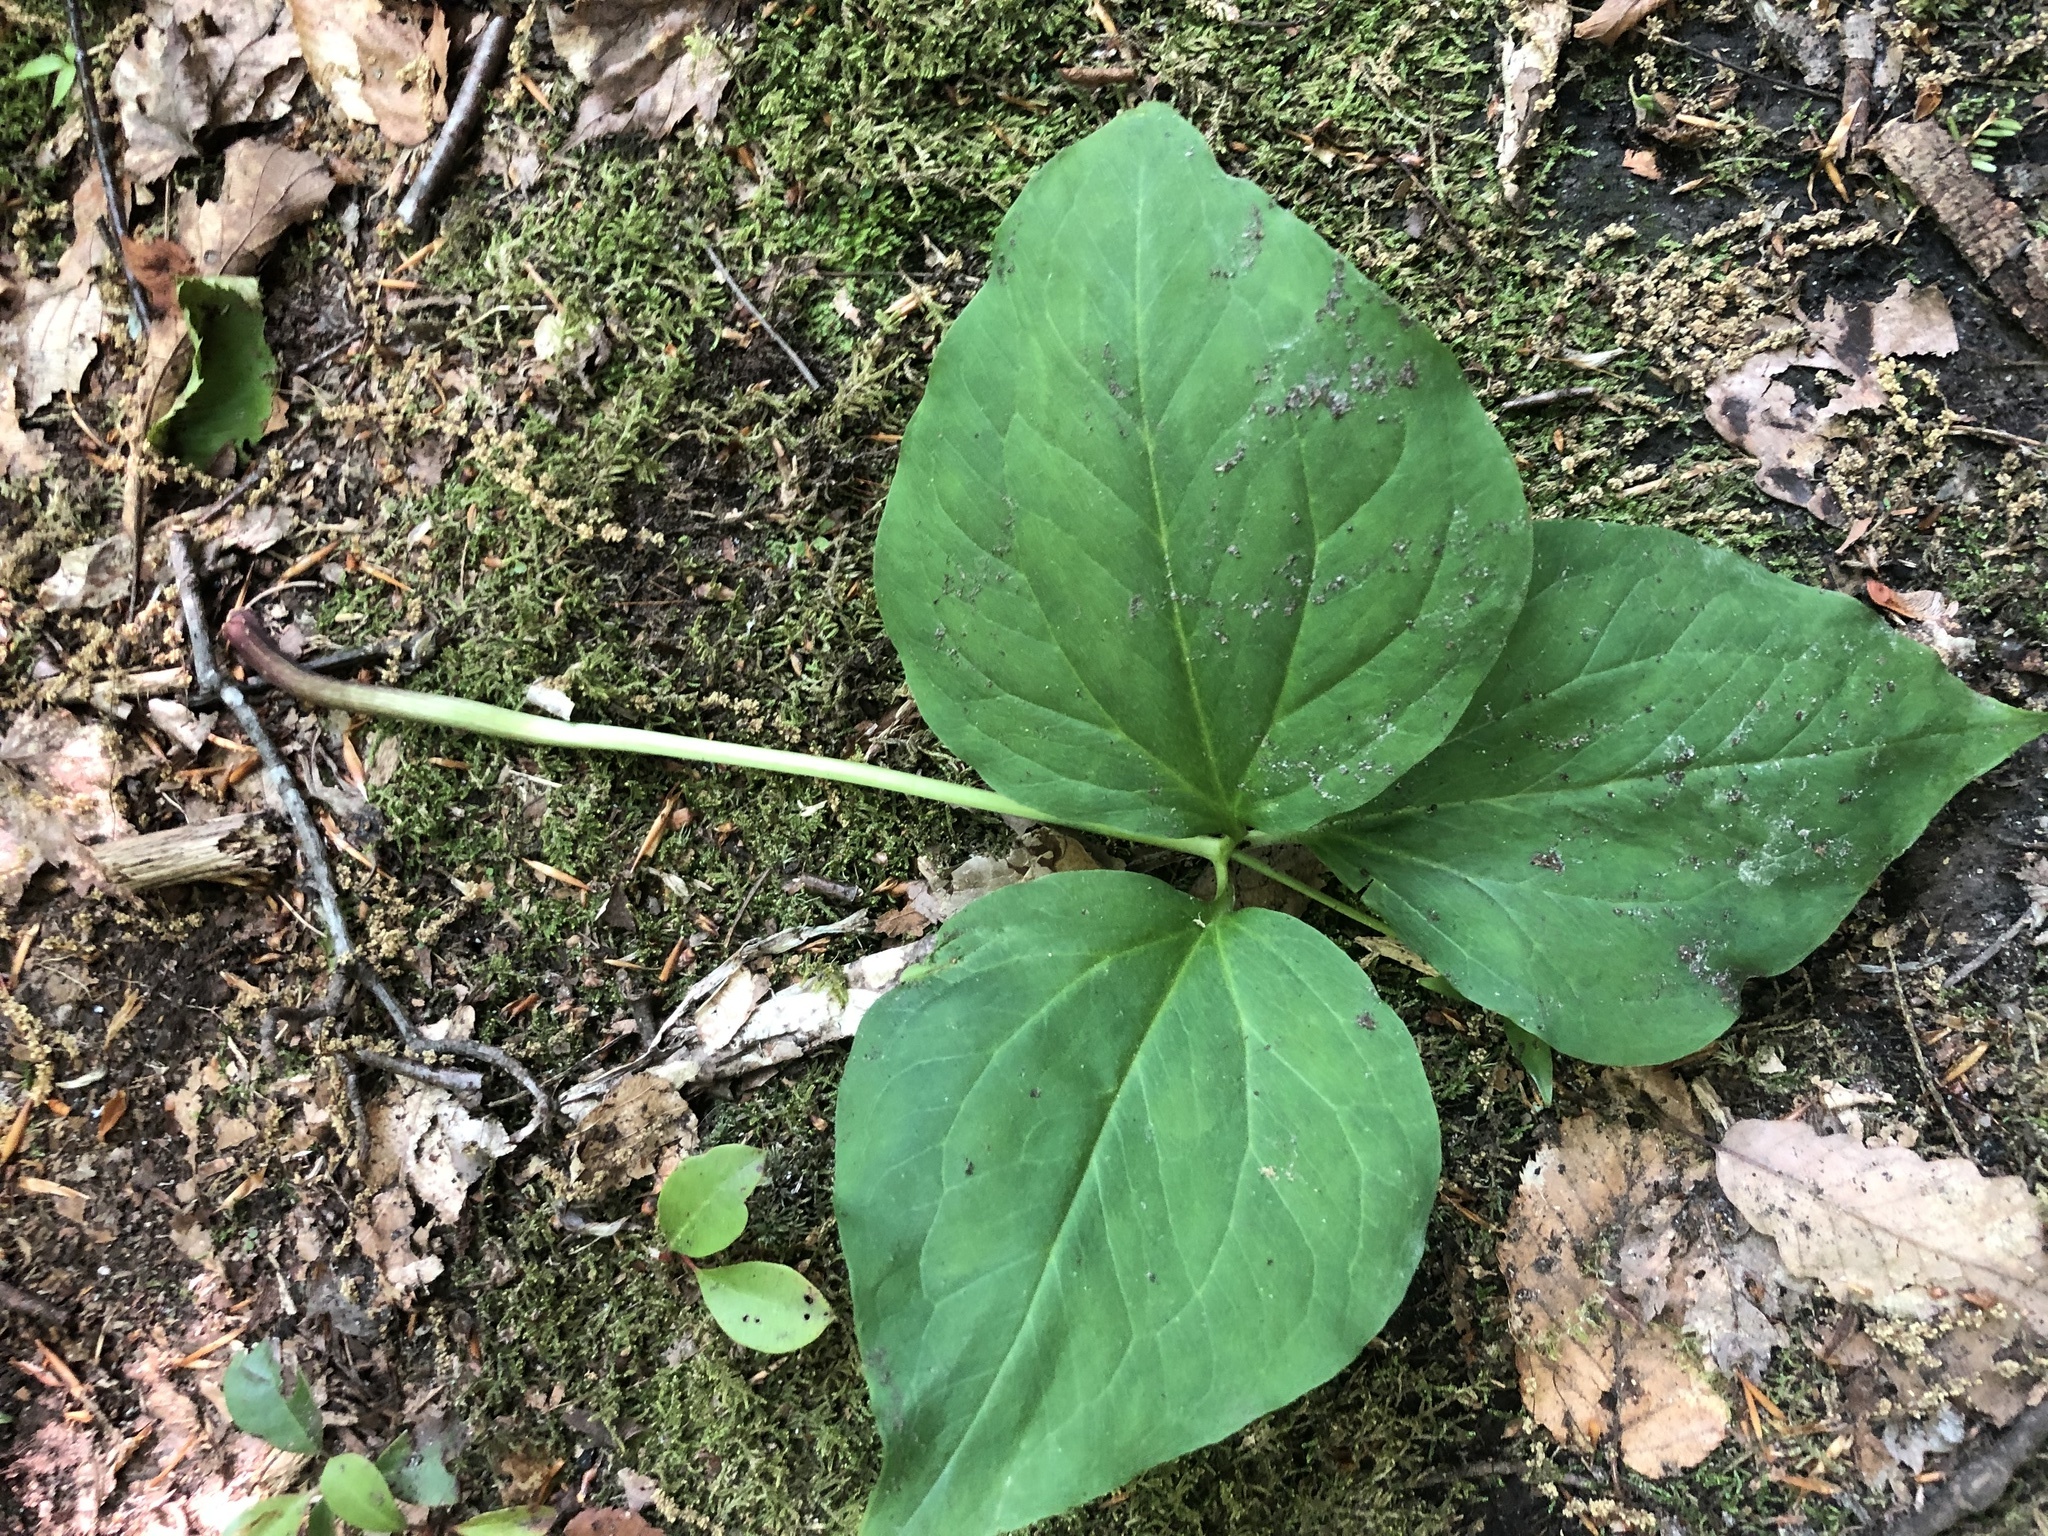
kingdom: Plantae
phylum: Tracheophyta
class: Liliopsida
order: Liliales
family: Melanthiaceae
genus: Trillium
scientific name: Trillium undulatum
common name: Paint trillium
